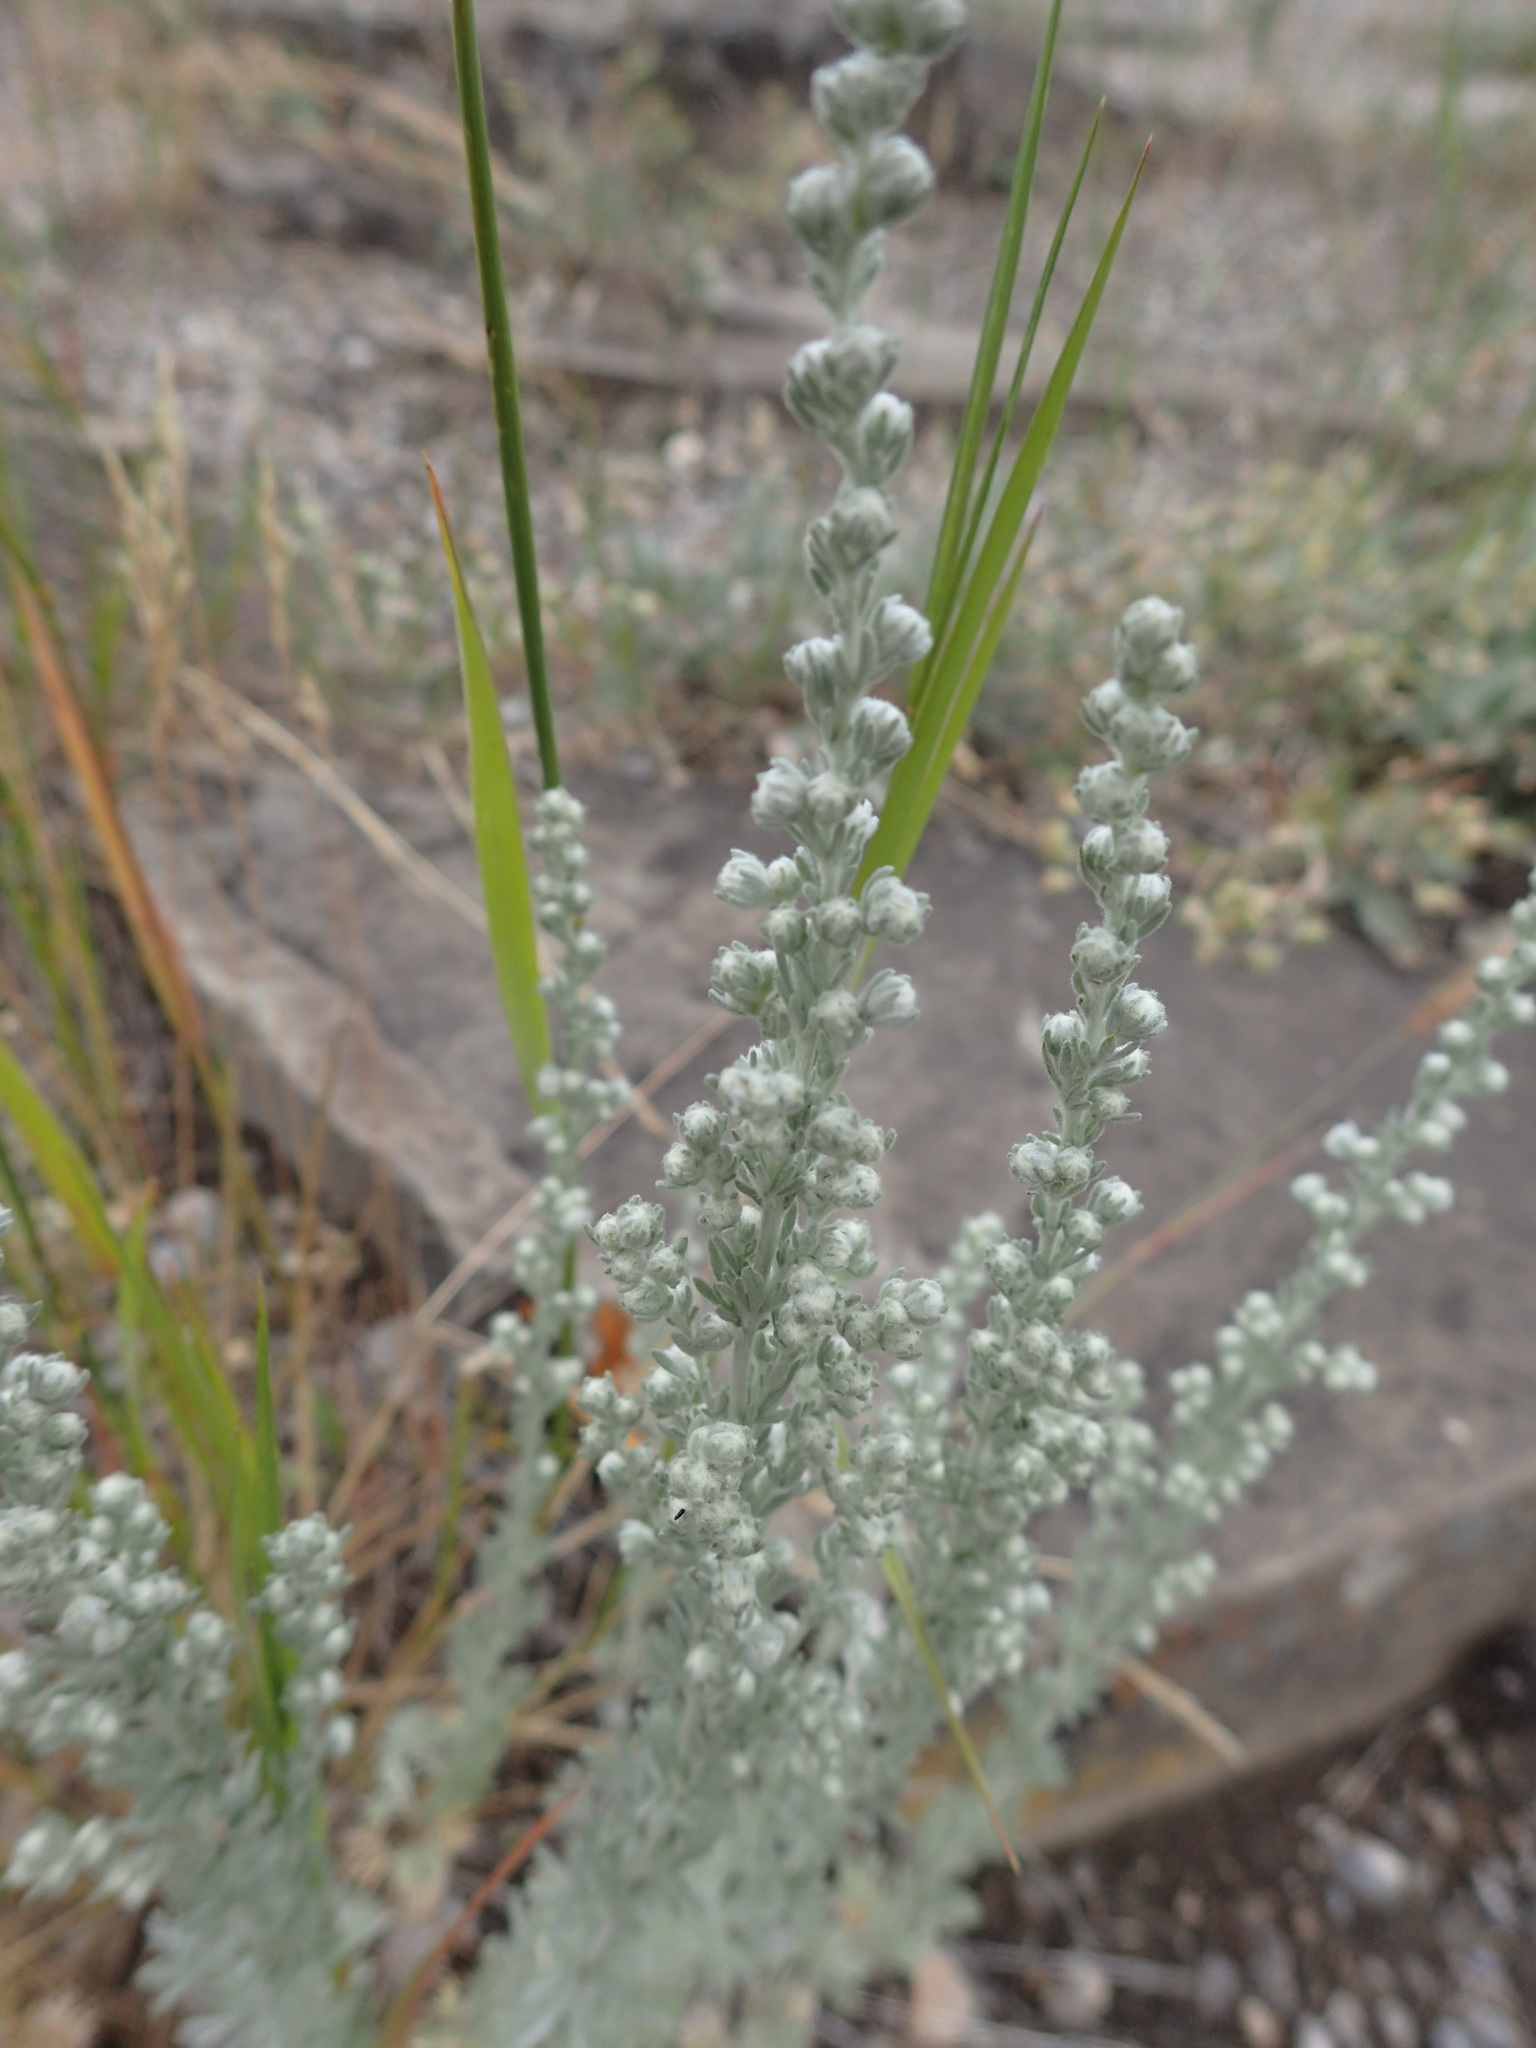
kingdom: Plantae
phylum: Tracheophyta
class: Magnoliopsida
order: Asterales
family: Asteraceae
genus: Artemisia
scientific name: Artemisia frigida
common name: Prairie sagewort
